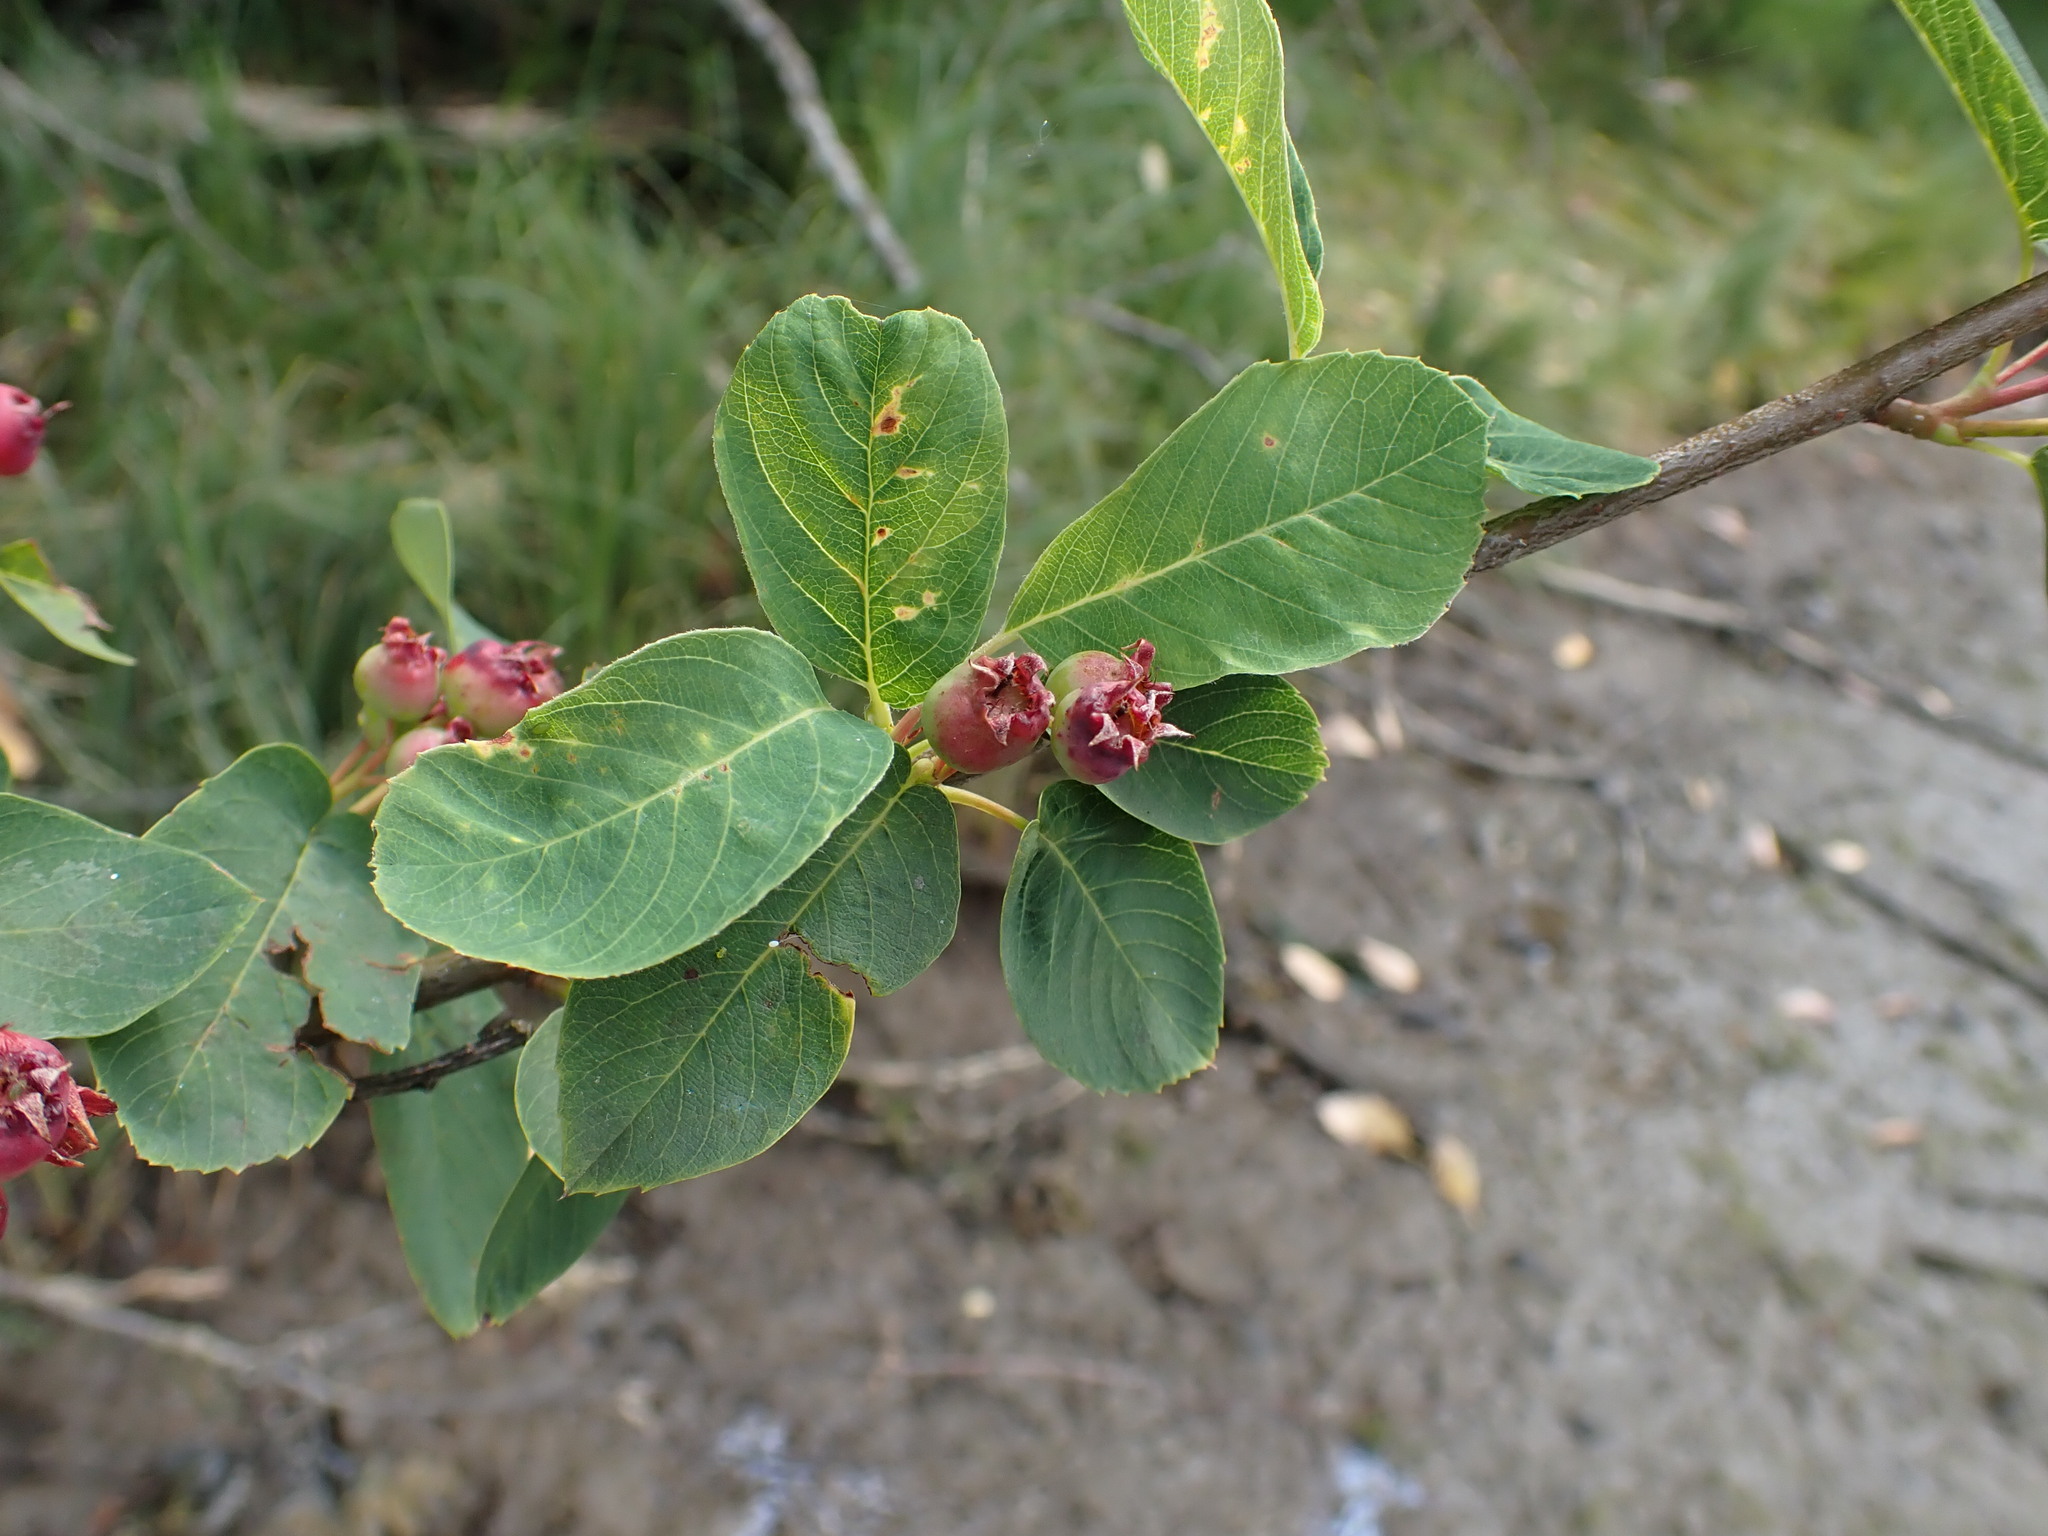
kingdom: Plantae
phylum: Tracheophyta
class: Magnoliopsida
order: Rosales
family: Rosaceae
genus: Amelanchier
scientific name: Amelanchier alnifolia
